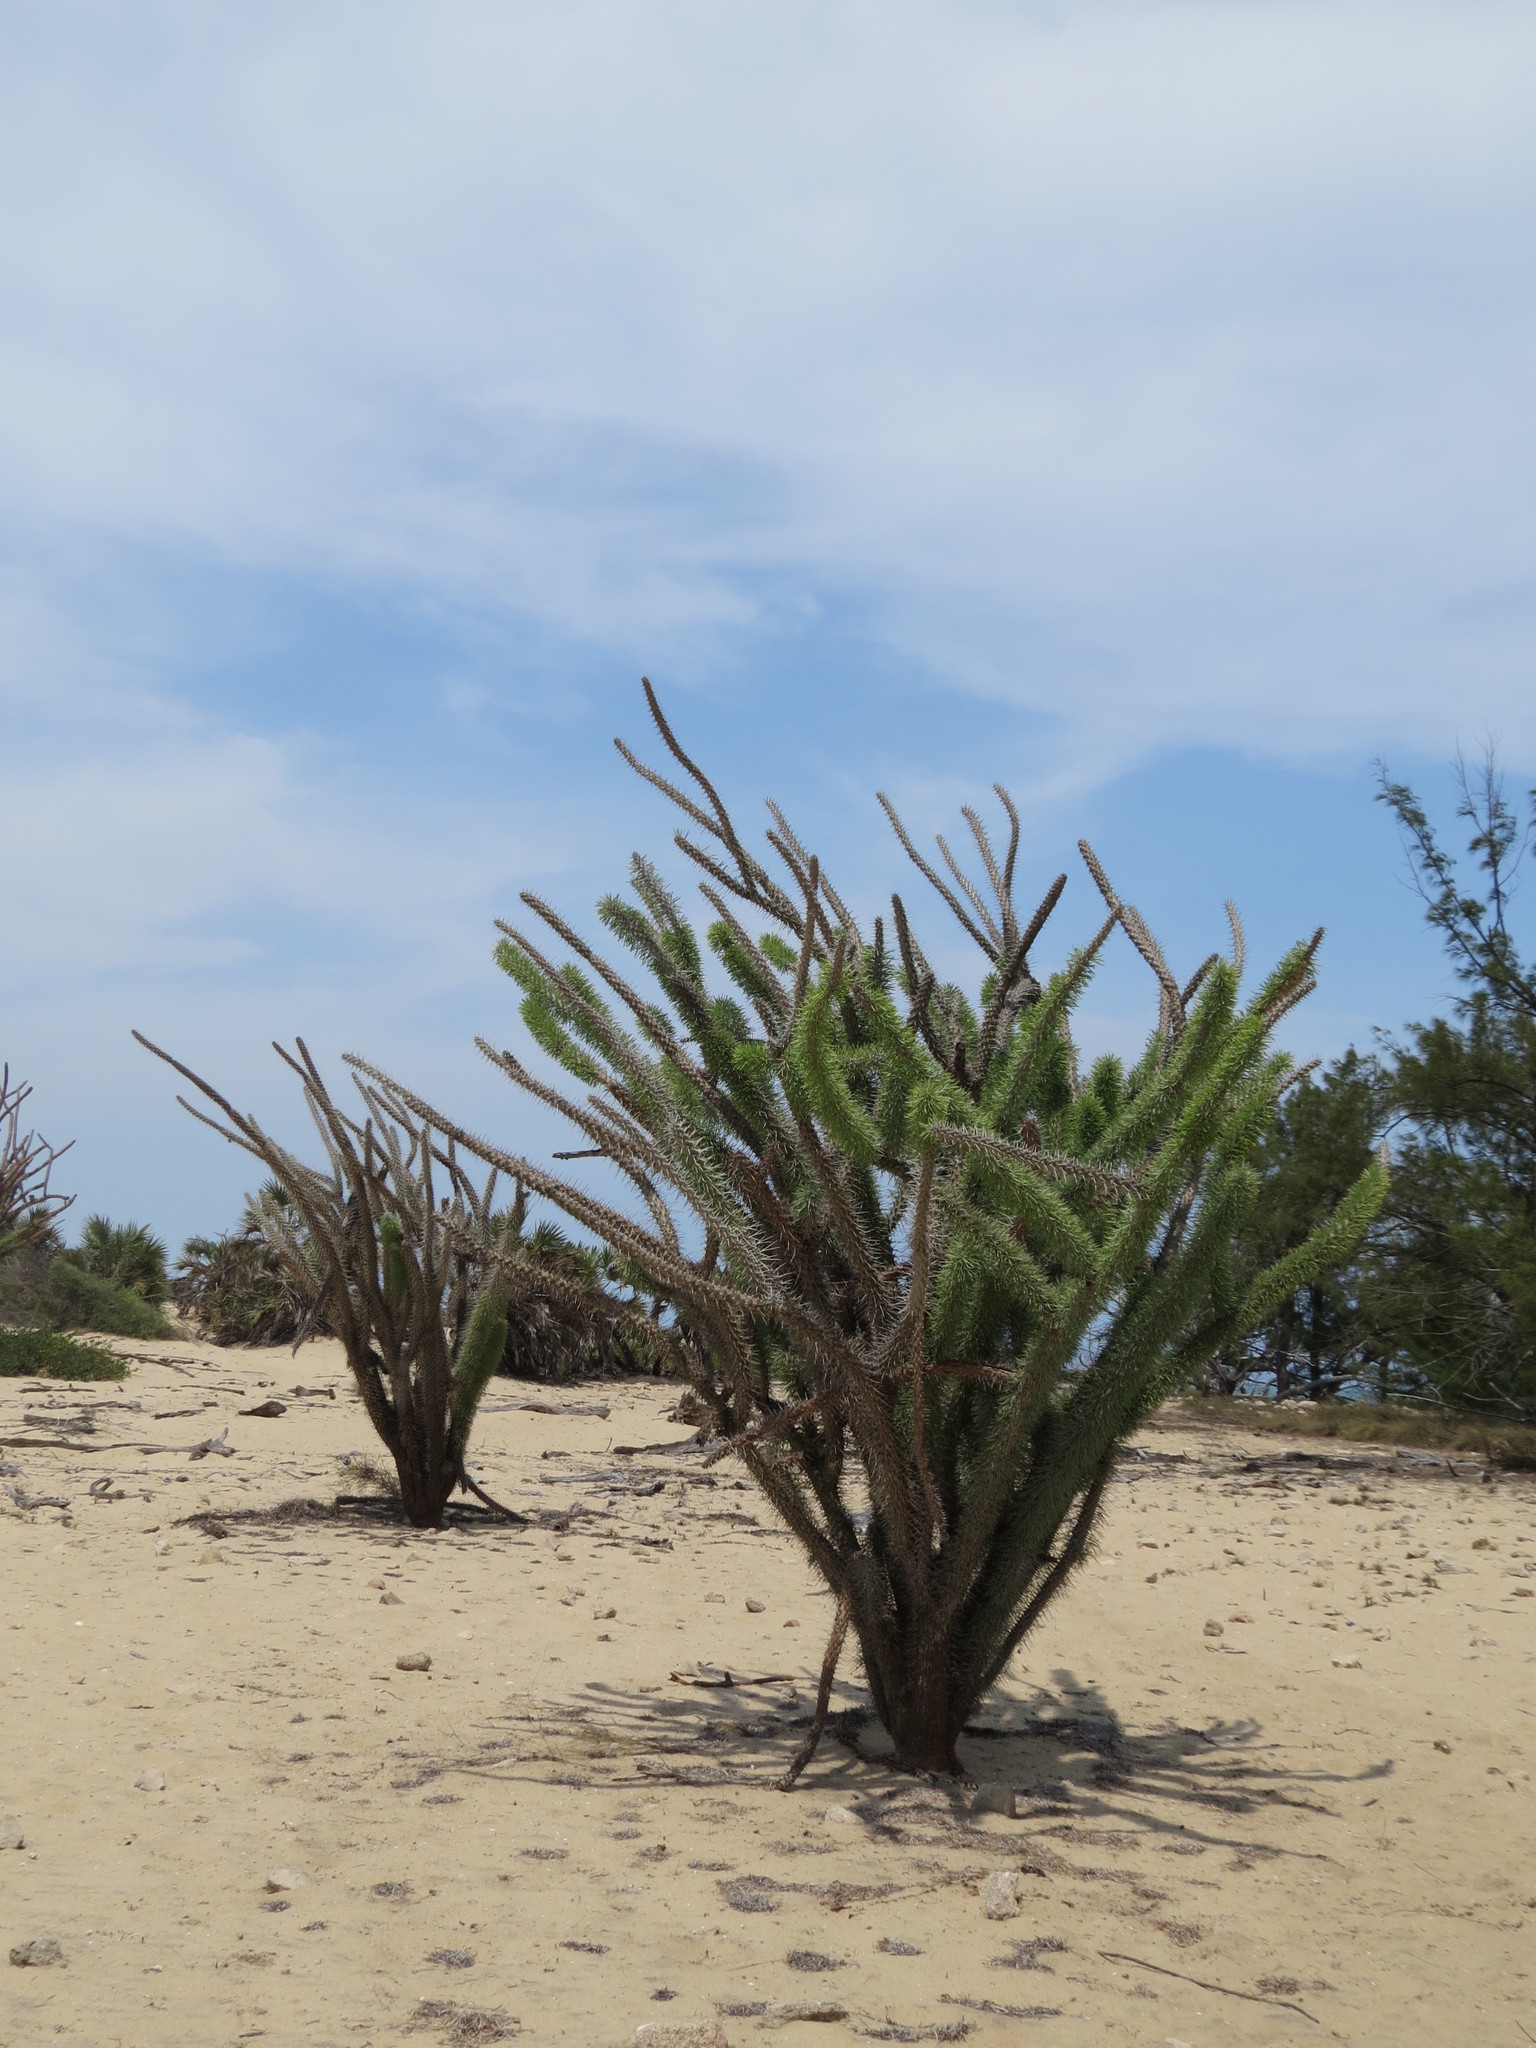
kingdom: Plantae
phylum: Tracheophyta
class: Magnoliopsida
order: Caryophyllales
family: Didiereaceae
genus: Didierea
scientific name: Didierea madagascariensis
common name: Octopus-tree
